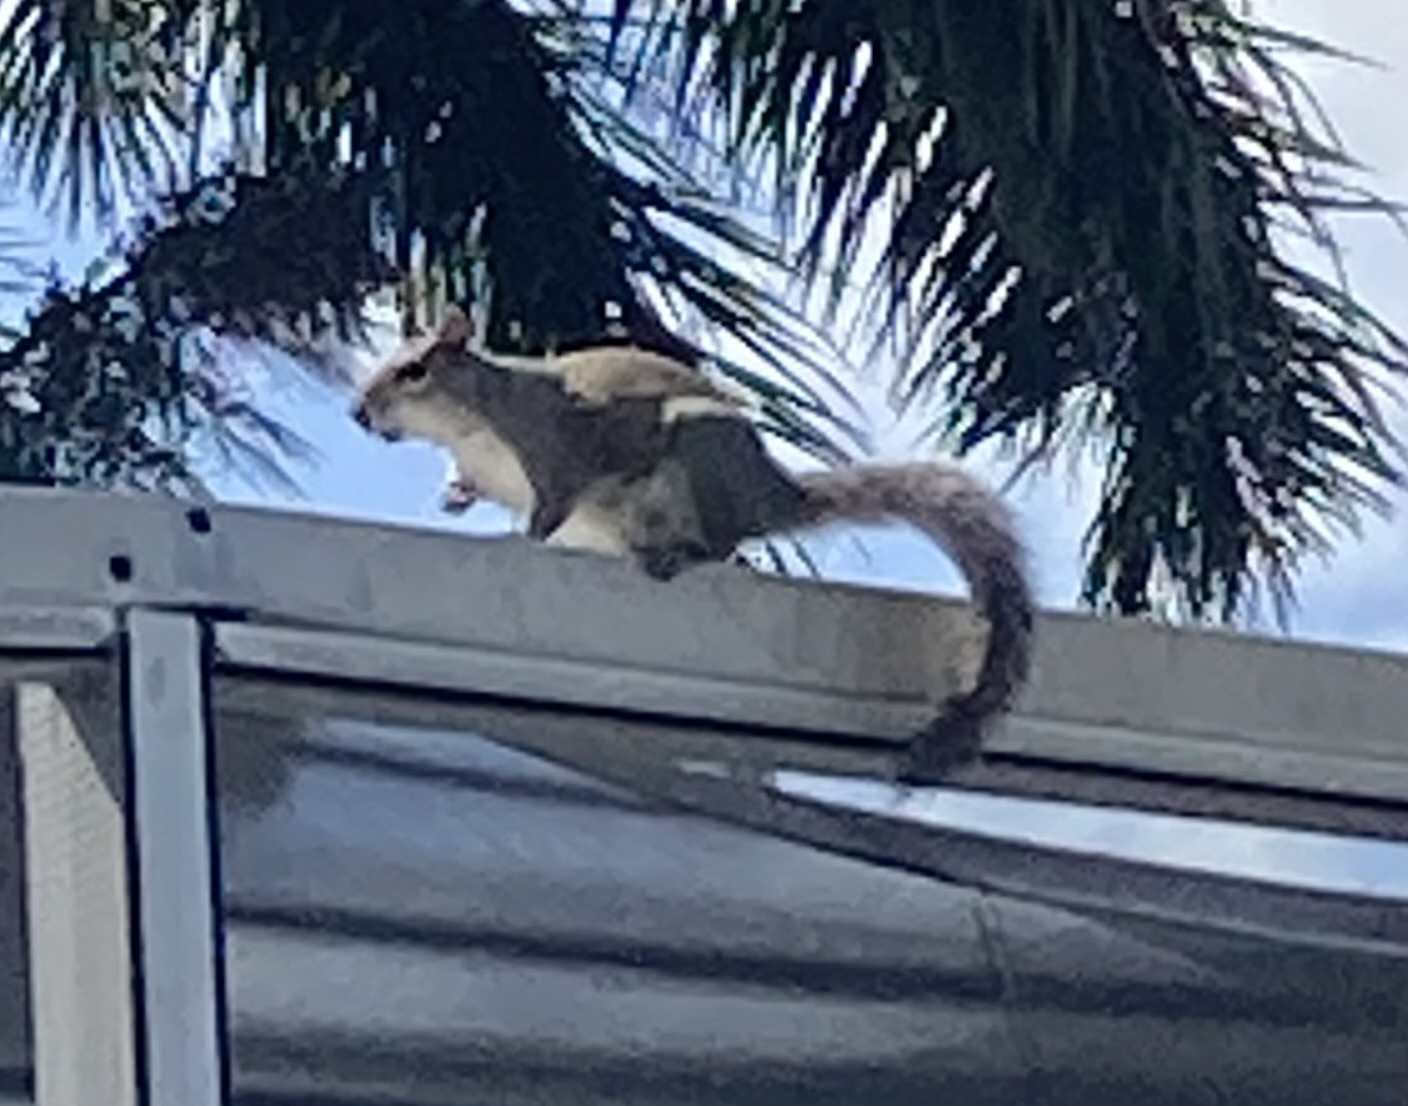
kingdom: Animalia
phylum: Chordata
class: Mammalia
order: Rodentia
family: Sciuridae
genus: Sciurus
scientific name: Sciurus carolinensis
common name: Eastern gray squirrel
